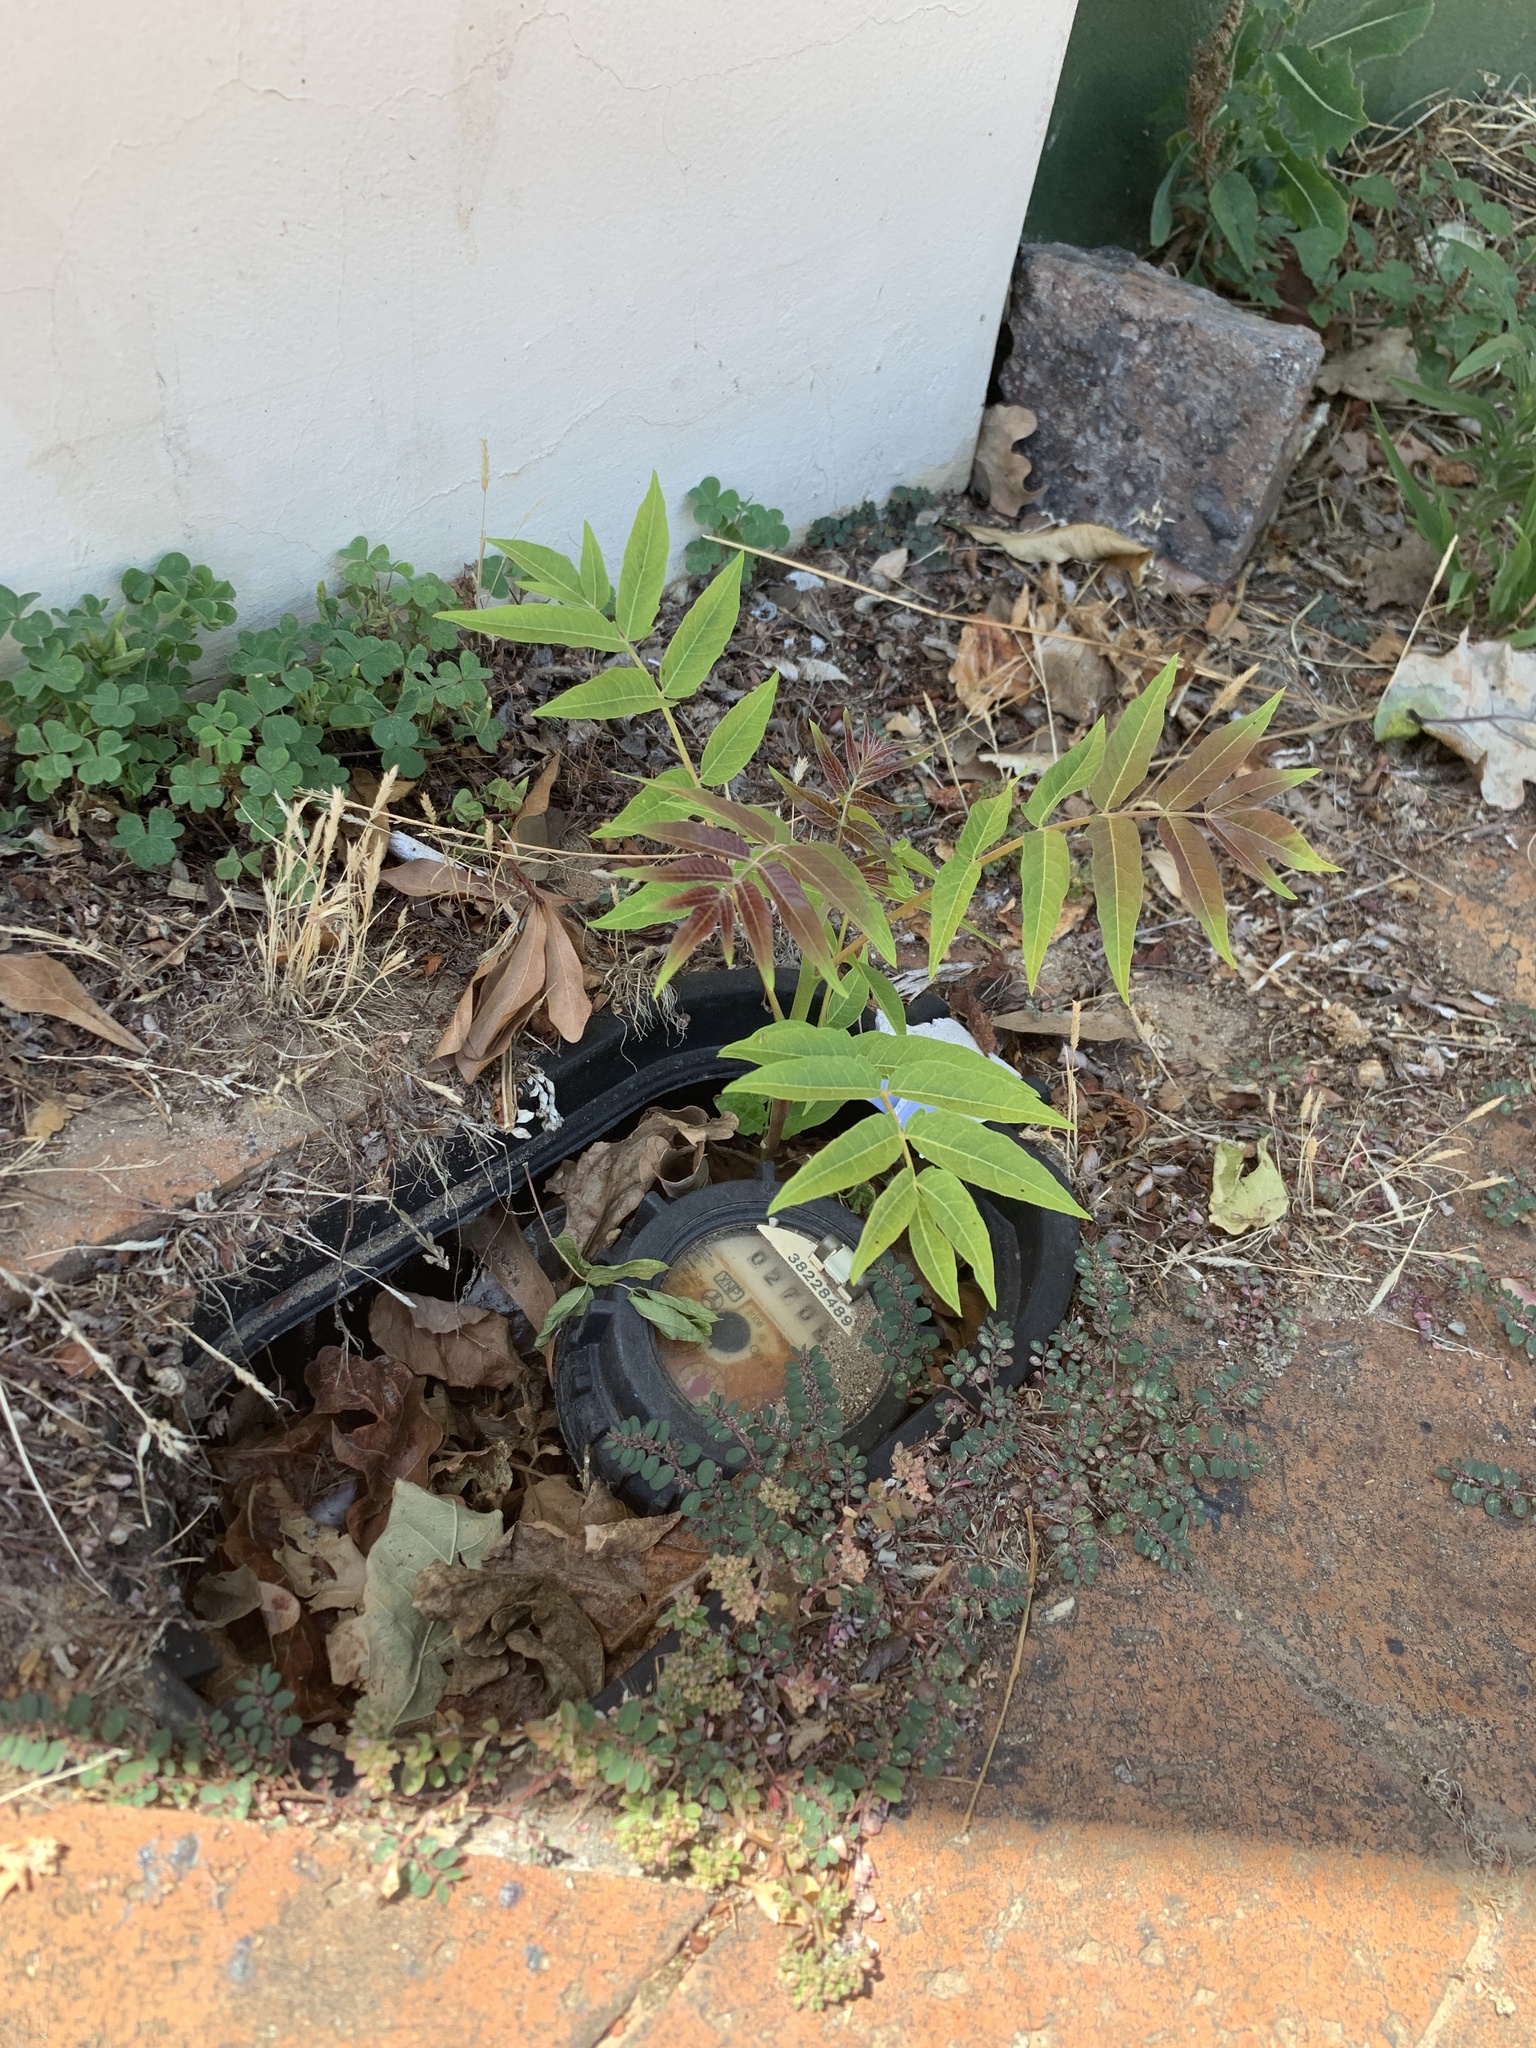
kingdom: Plantae
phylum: Tracheophyta
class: Magnoliopsida
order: Sapindales
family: Simaroubaceae
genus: Ailanthus
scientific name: Ailanthus altissima
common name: Tree-of-heaven
